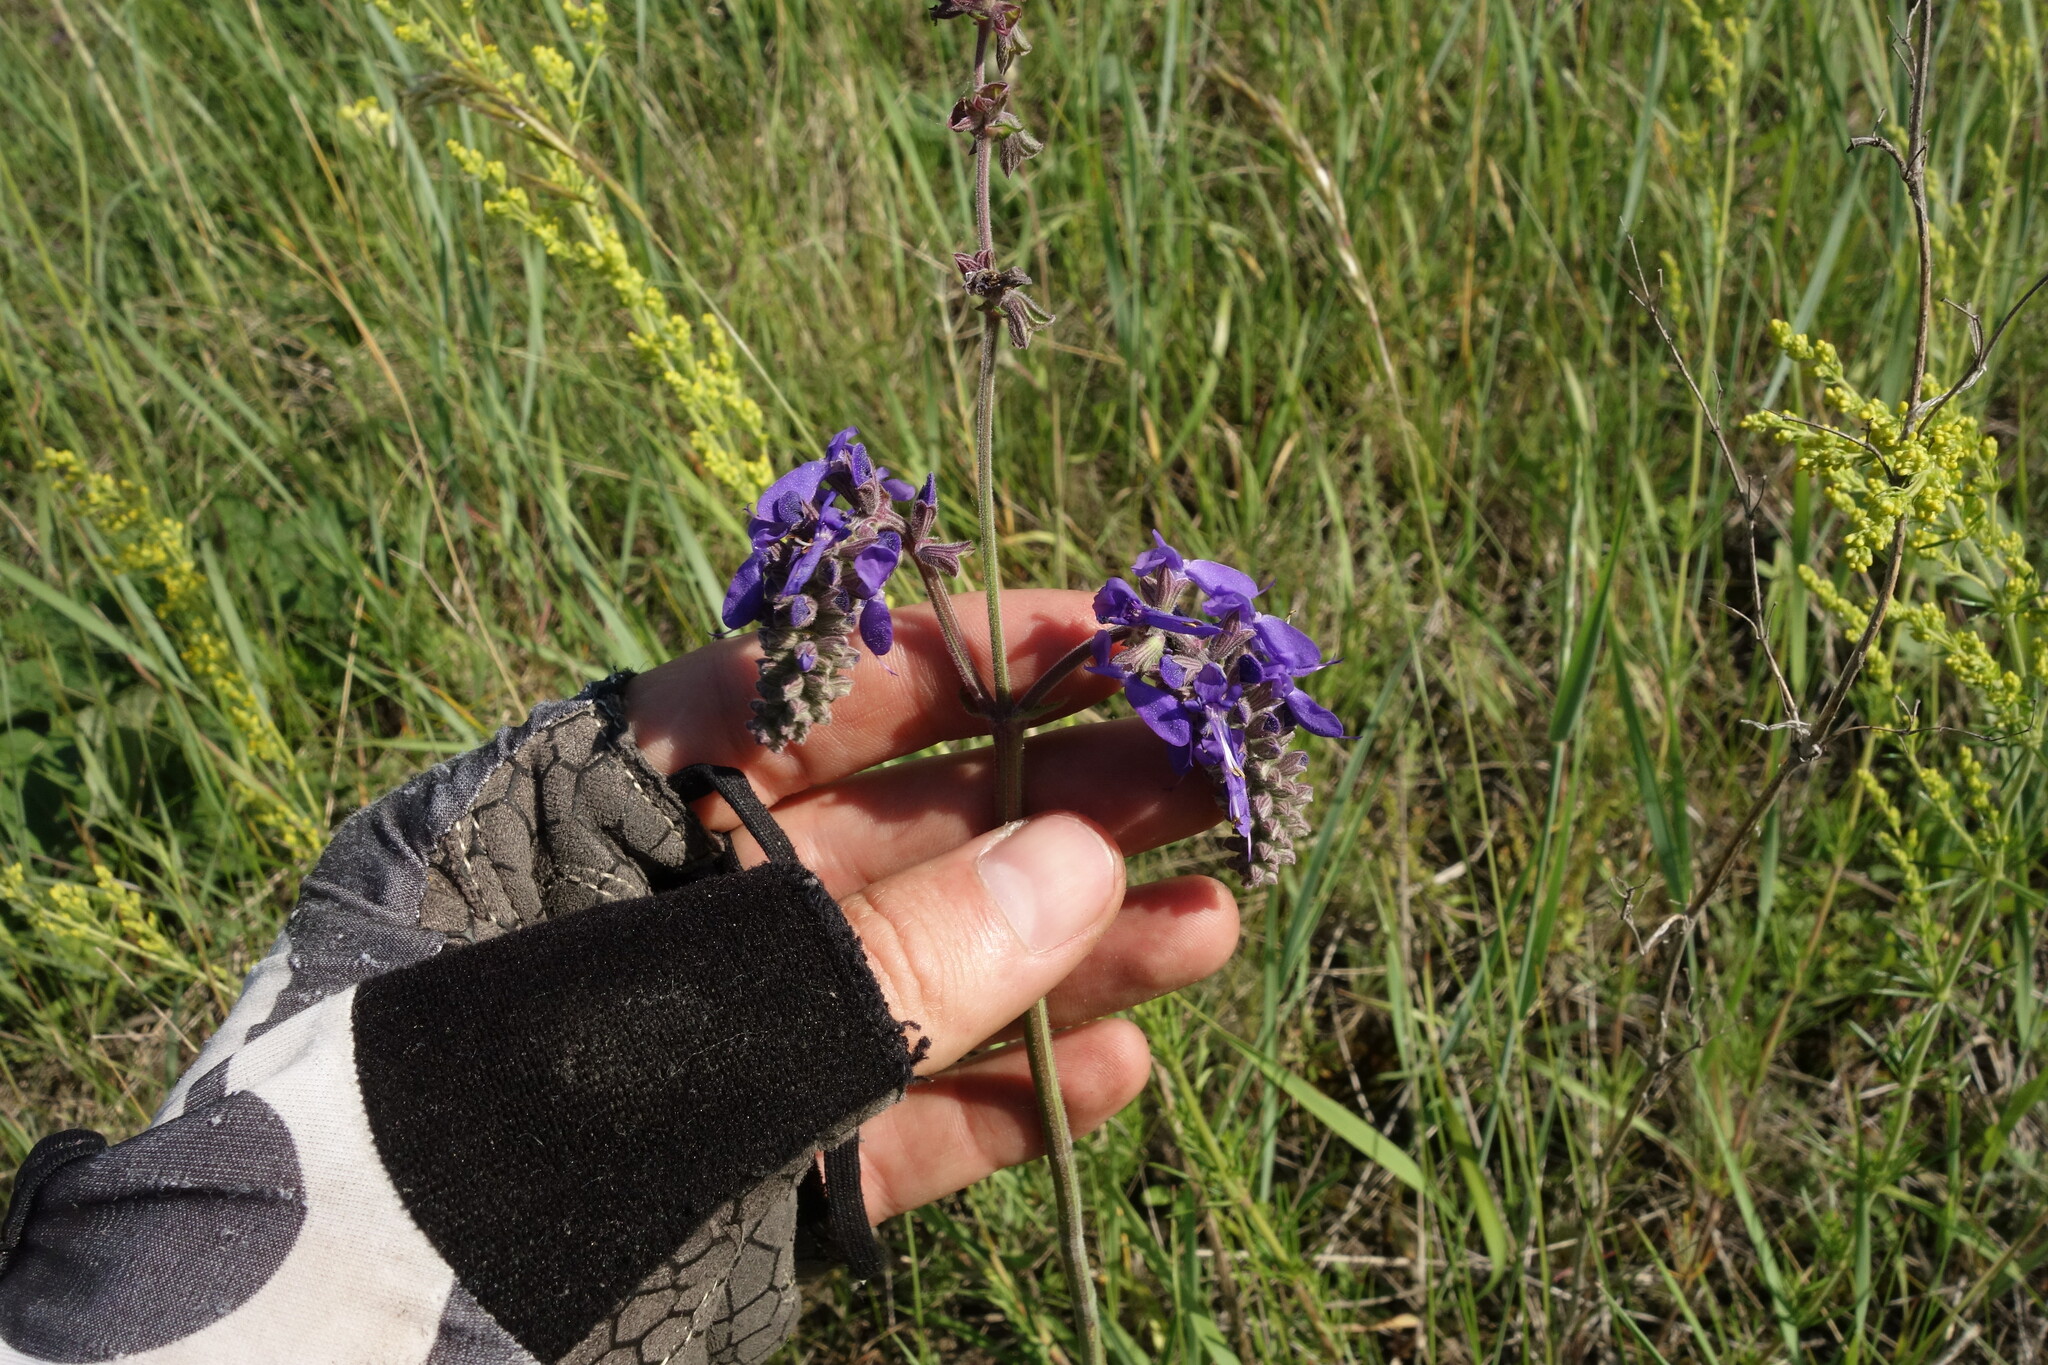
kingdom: Plantae
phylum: Tracheophyta
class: Magnoliopsida
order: Lamiales
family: Lamiaceae
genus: Salvia
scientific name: Salvia nutans
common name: Nodding sage
